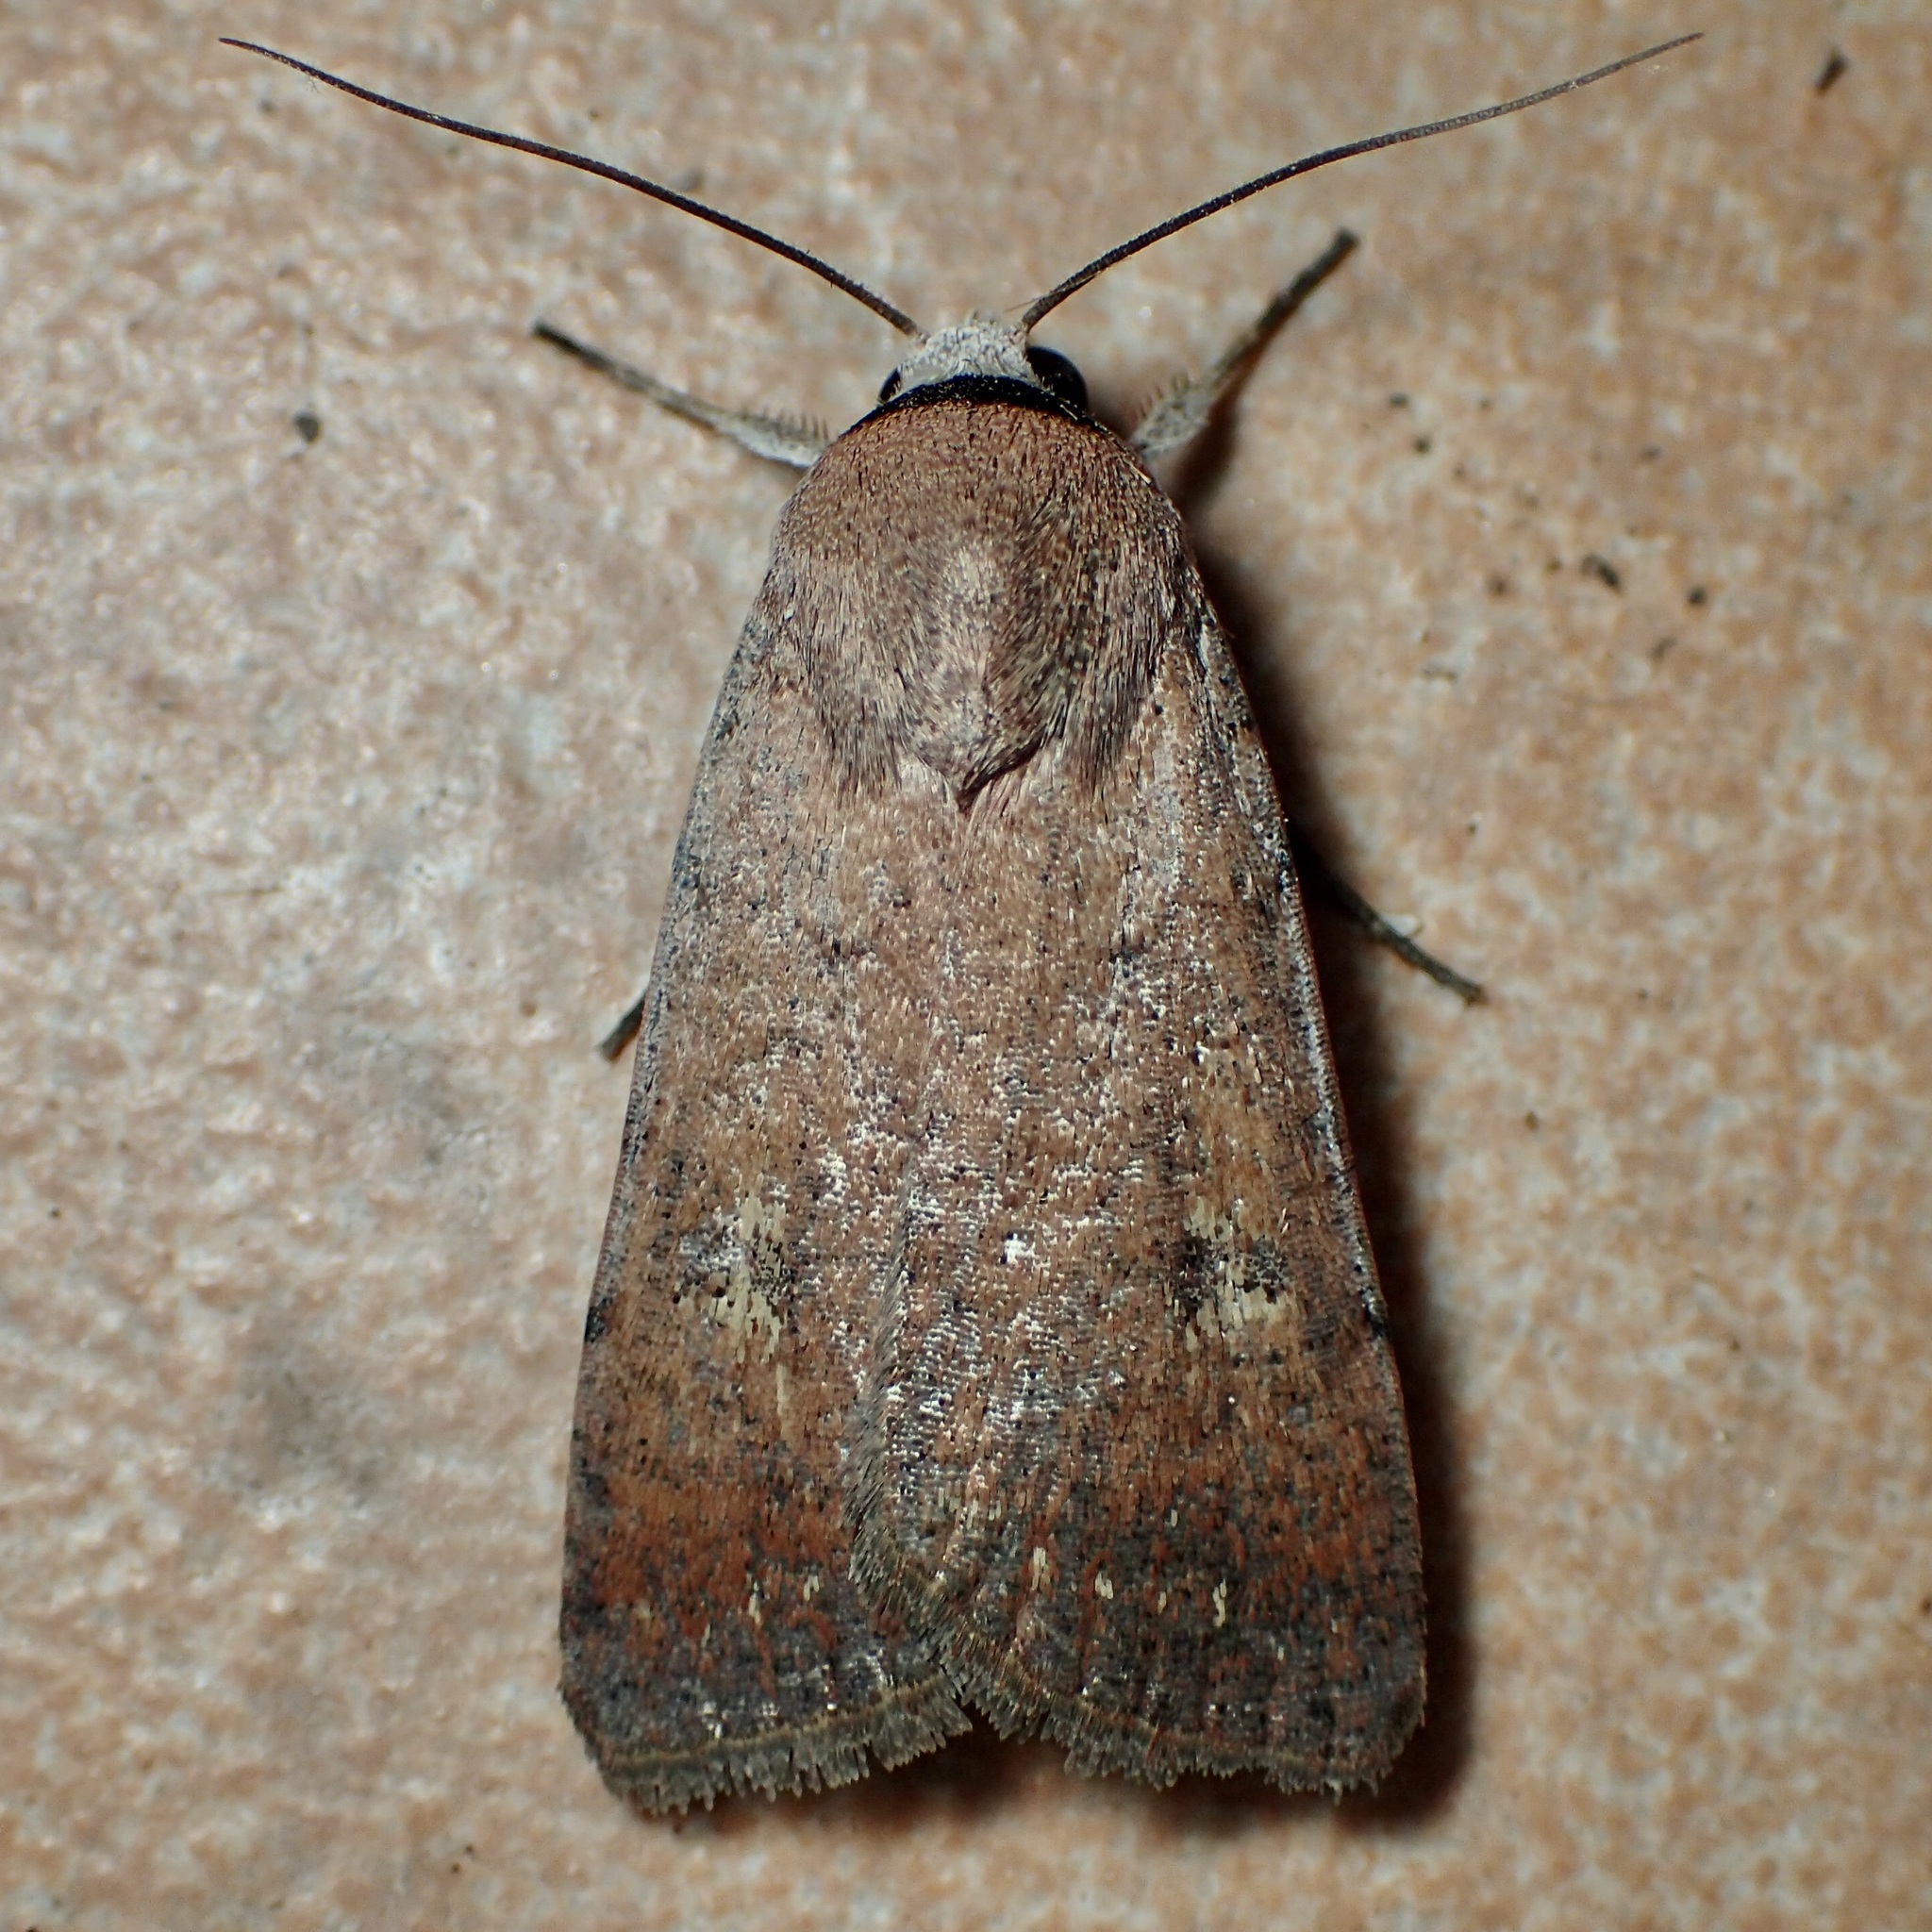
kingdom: Animalia
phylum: Arthropoda
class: Insecta
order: Lepidoptera
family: Noctuidae
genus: Anicla
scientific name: Anicla biformata
